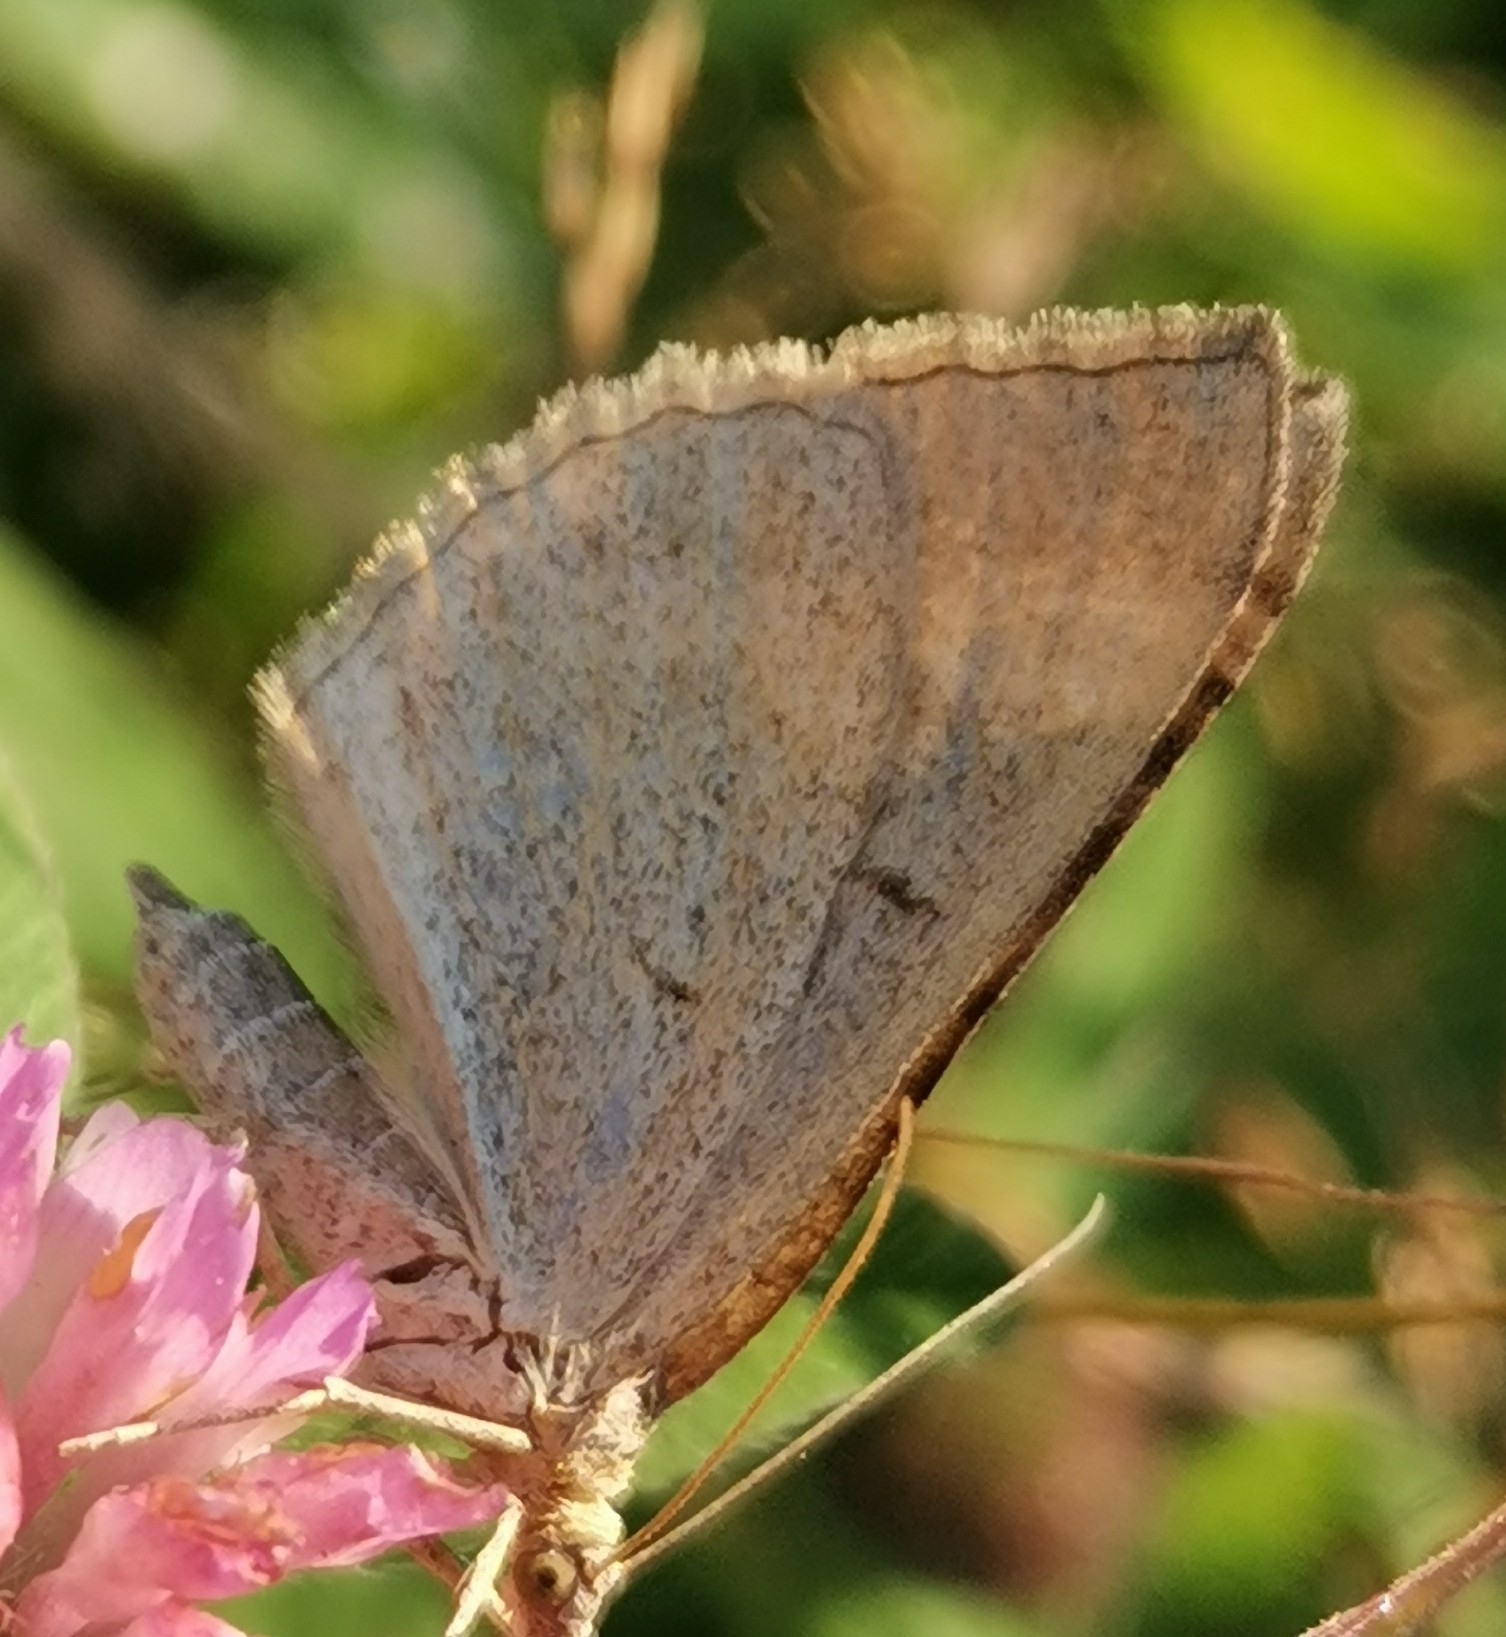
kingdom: Animalia
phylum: Arthropoda
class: Insecta
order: Lepidoptera
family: Geometridae
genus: Scotopteryx
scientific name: Scotopteryx chenopodiata
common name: Shaded broad-bar
